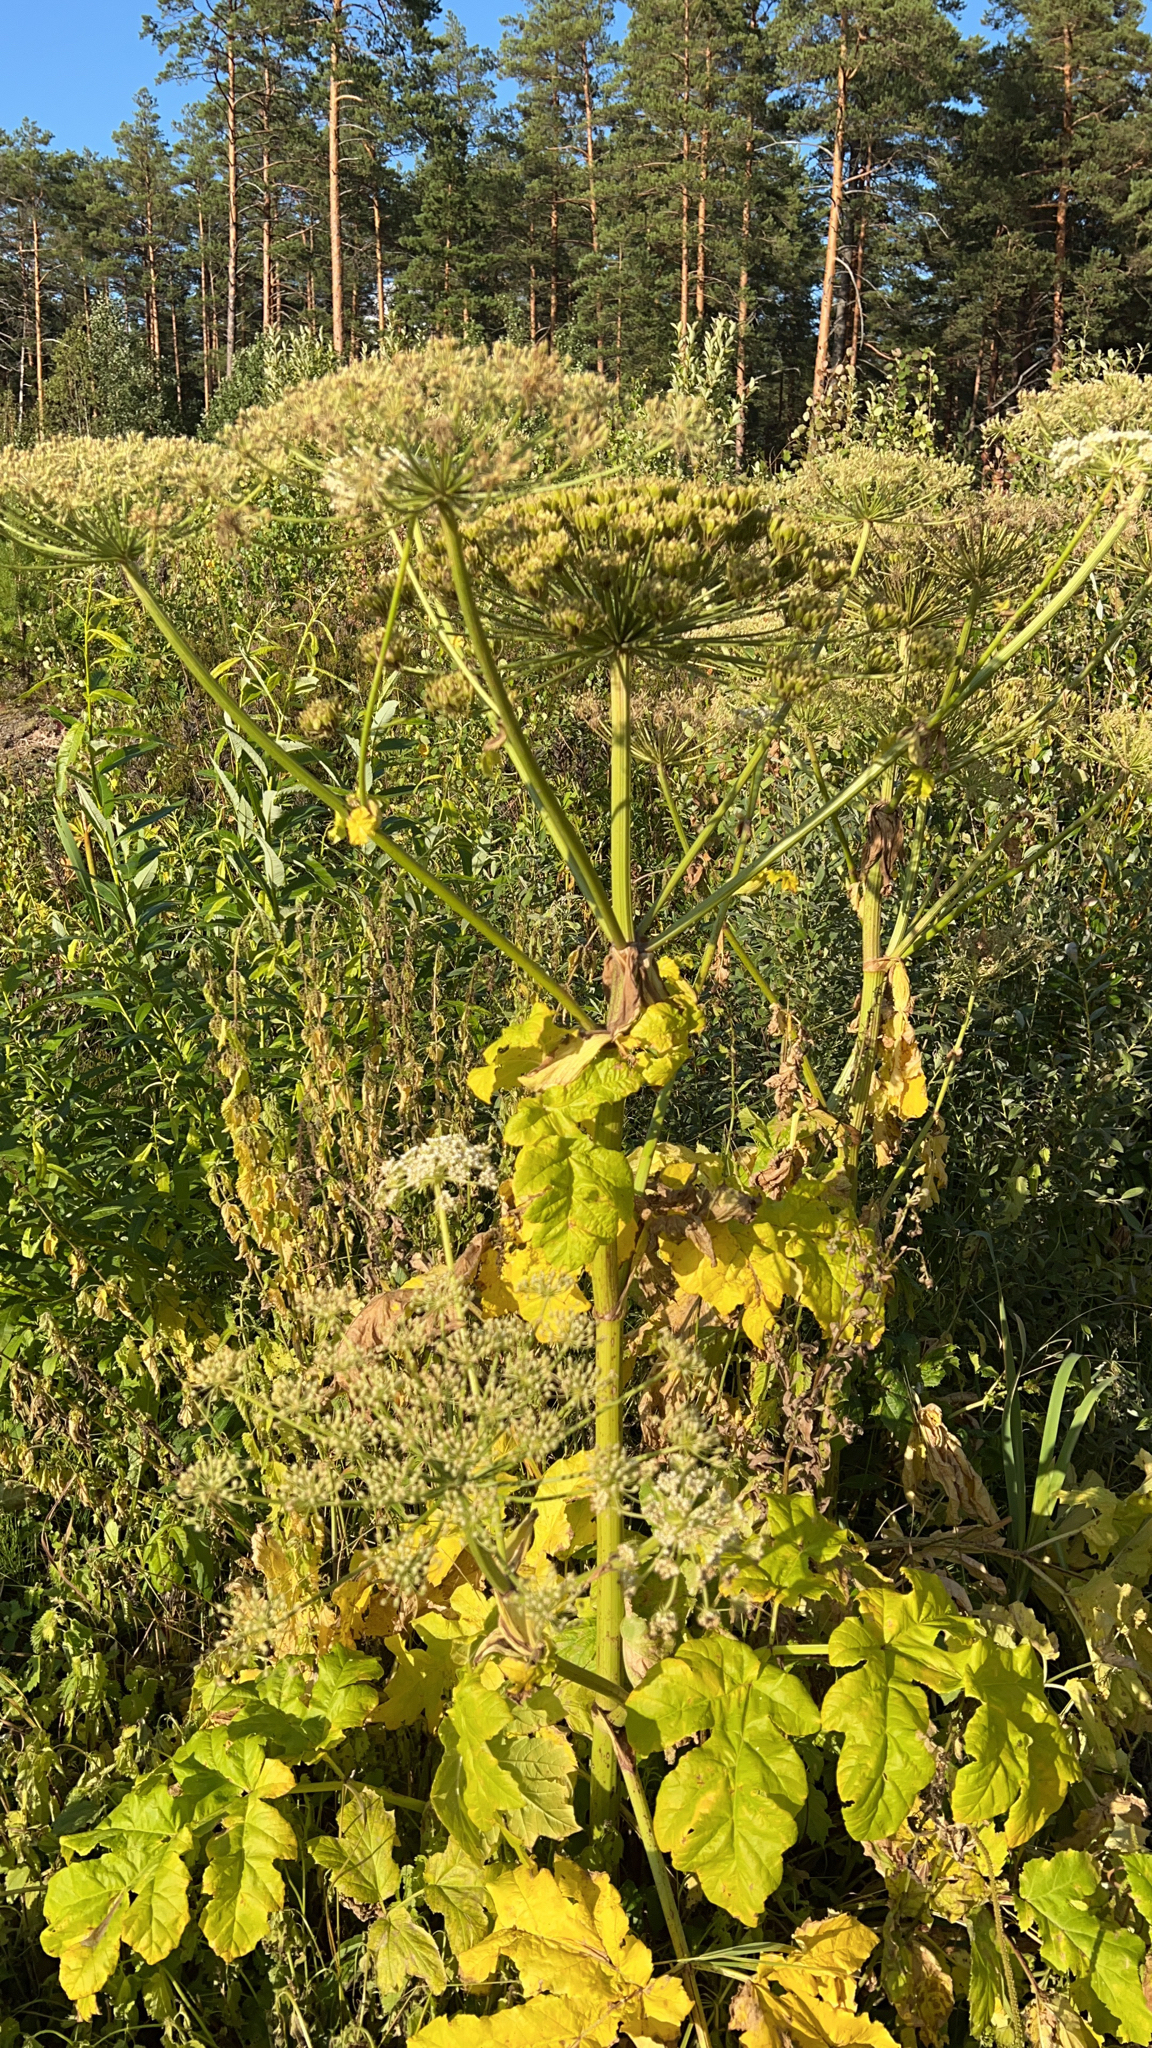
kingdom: Plantae
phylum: Tracheophyta
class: Magnoliopsida
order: Apiales
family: Apiaceae
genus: Heracleum
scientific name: Heracleum sosnowskyi
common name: Sosnowsky's hogweed
